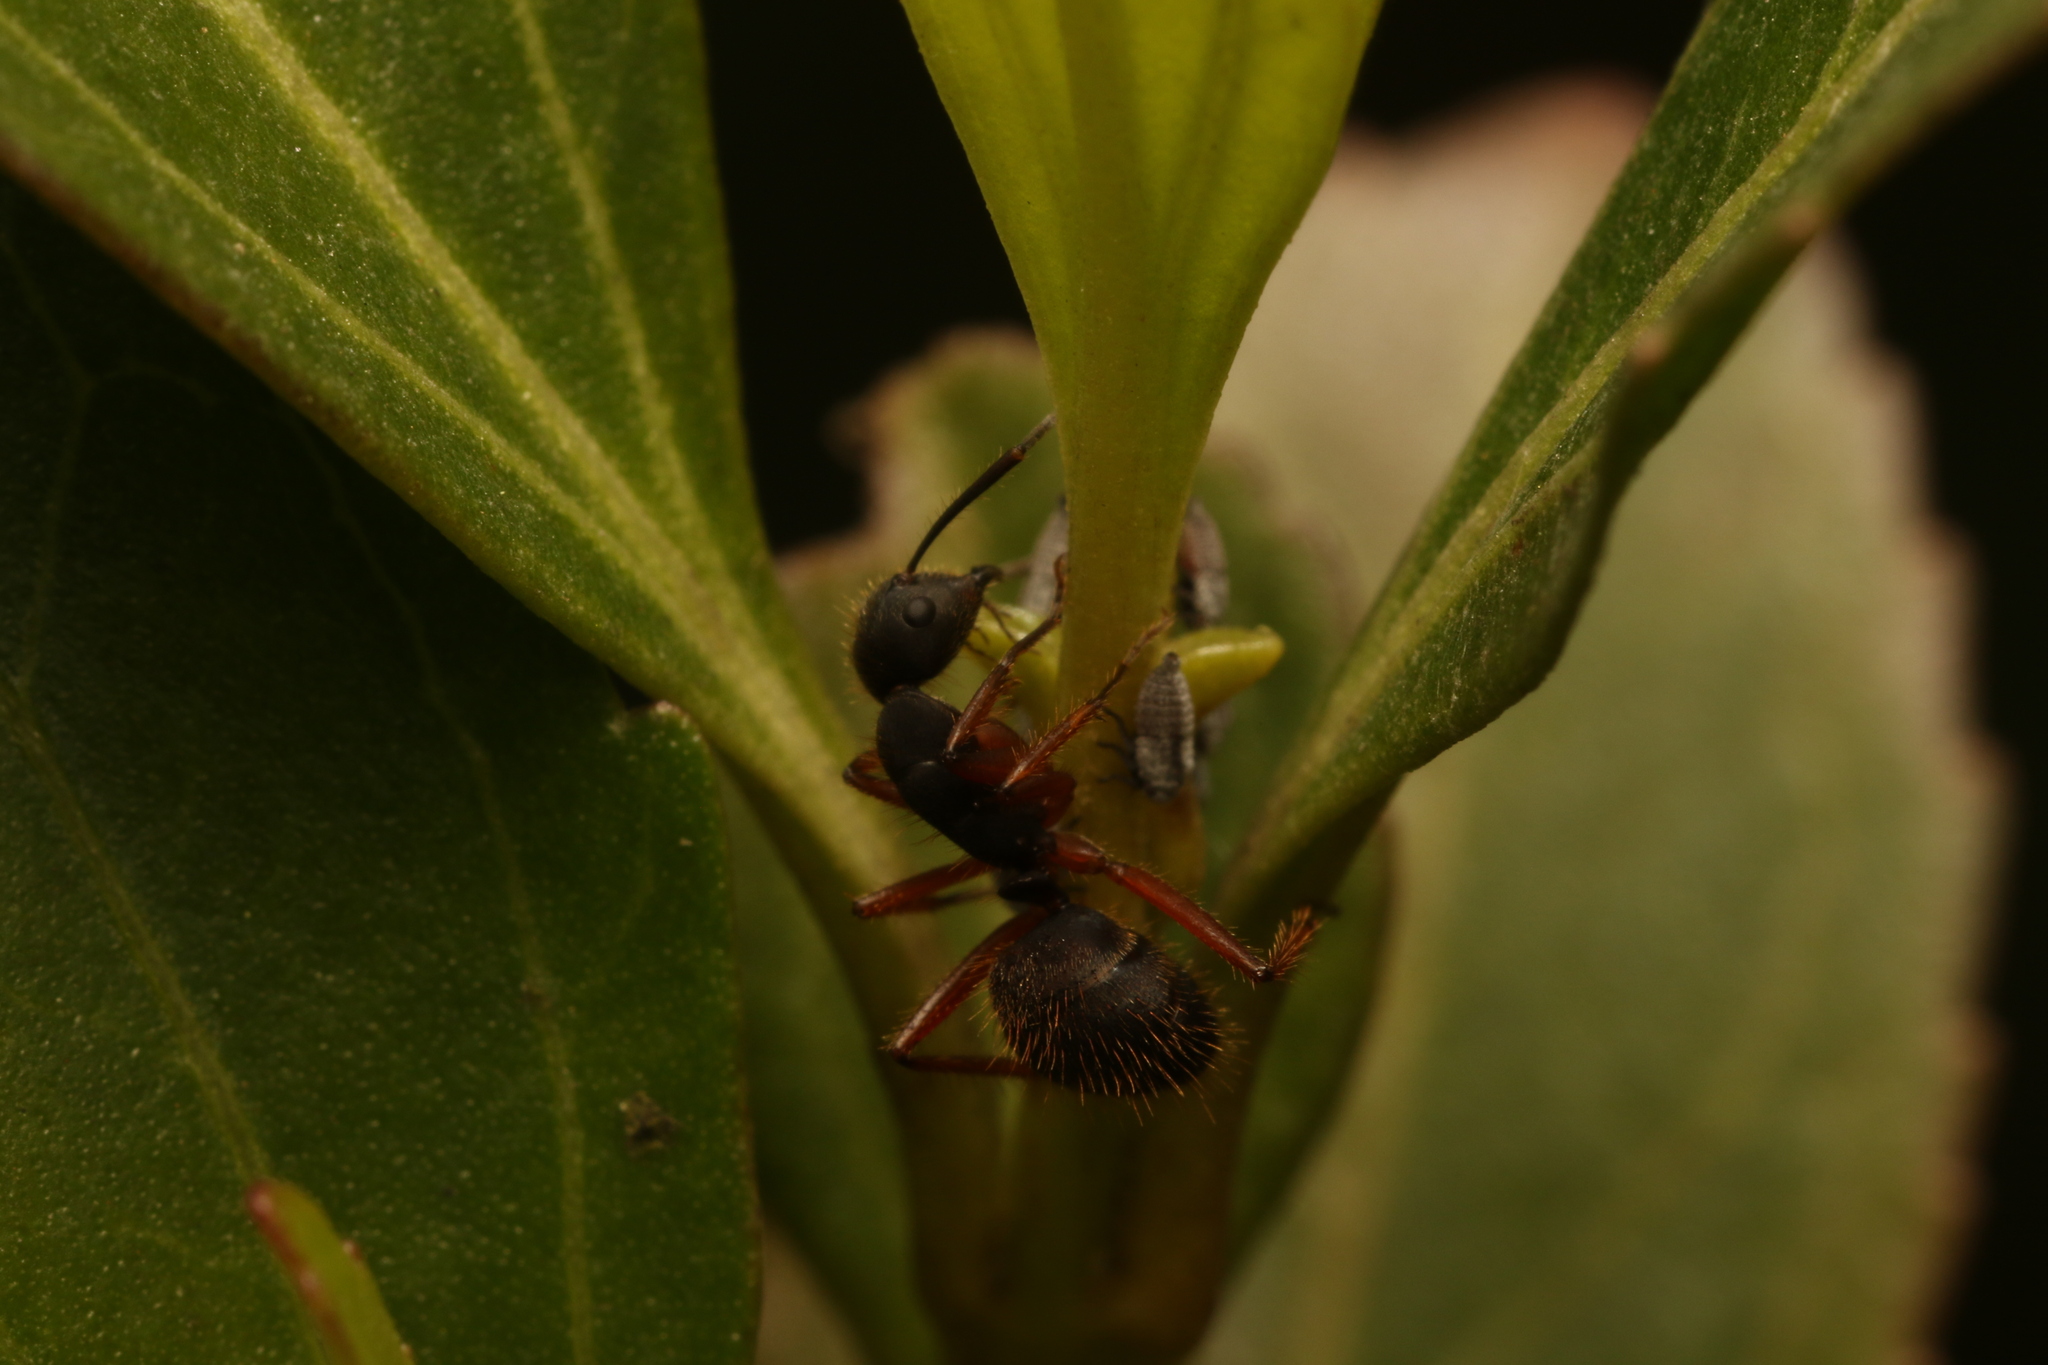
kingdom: Animalia
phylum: Arthropoda
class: Insecta
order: Hymenoptera
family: Formicidae
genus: Camponotus
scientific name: Camponotus rufipes
